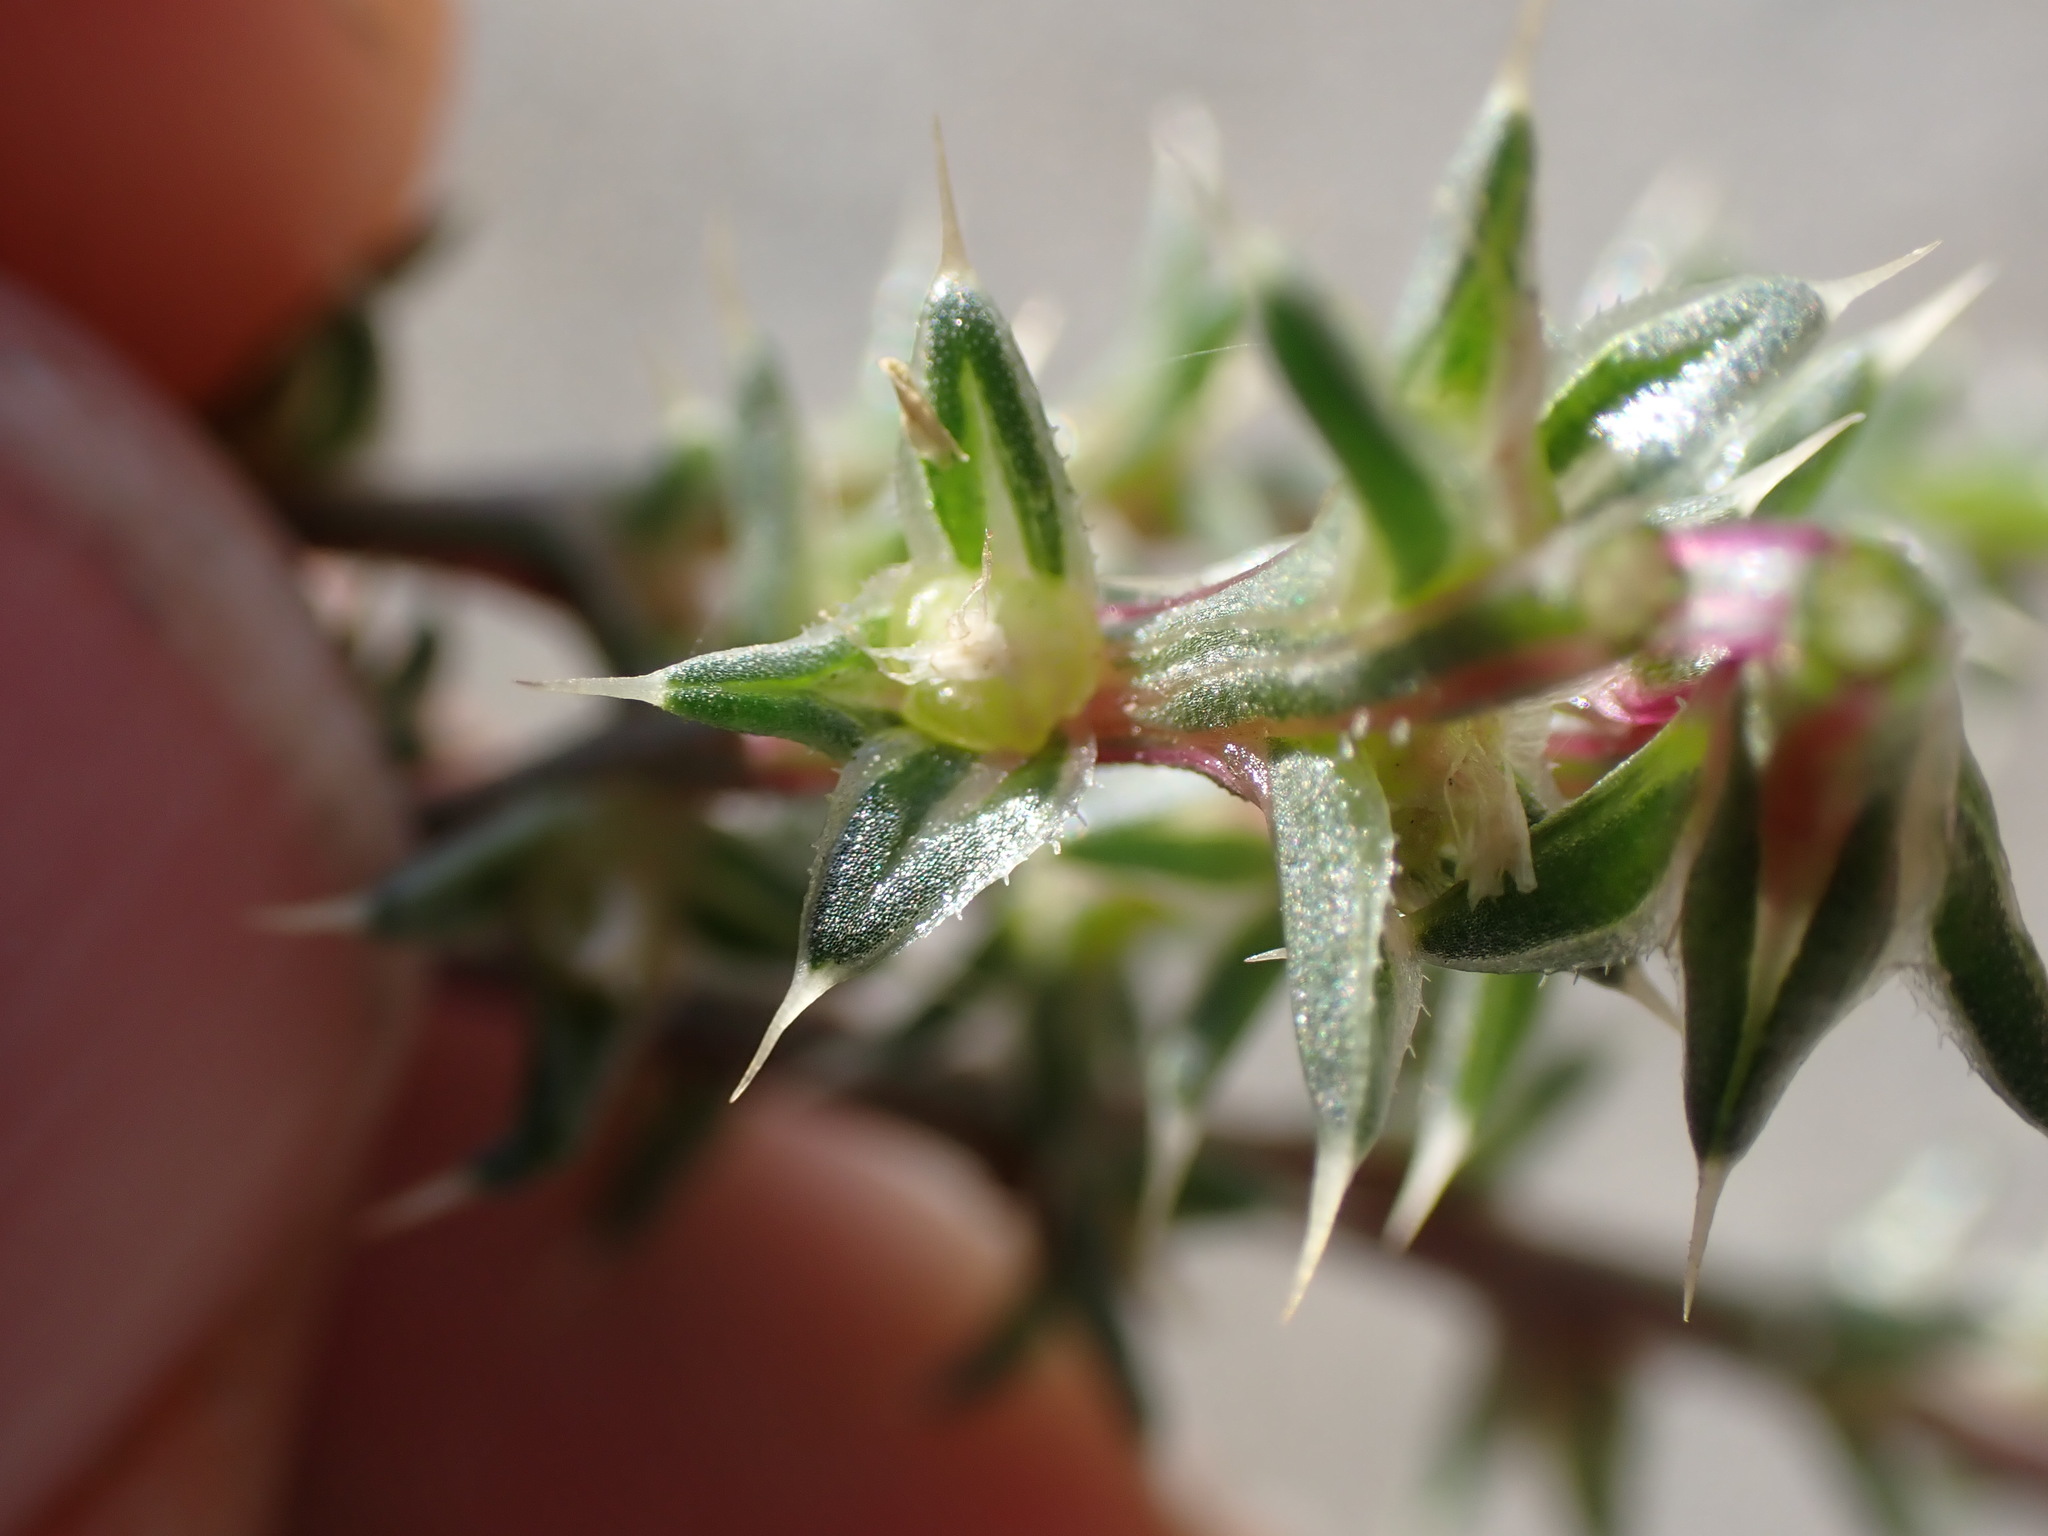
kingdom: Plantae
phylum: Tracheophyta
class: Magnoliopsida
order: Caryophyllales
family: Amaranthaceae
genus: Salsola
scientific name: Salsola tragus
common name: Prickly russian thistle
